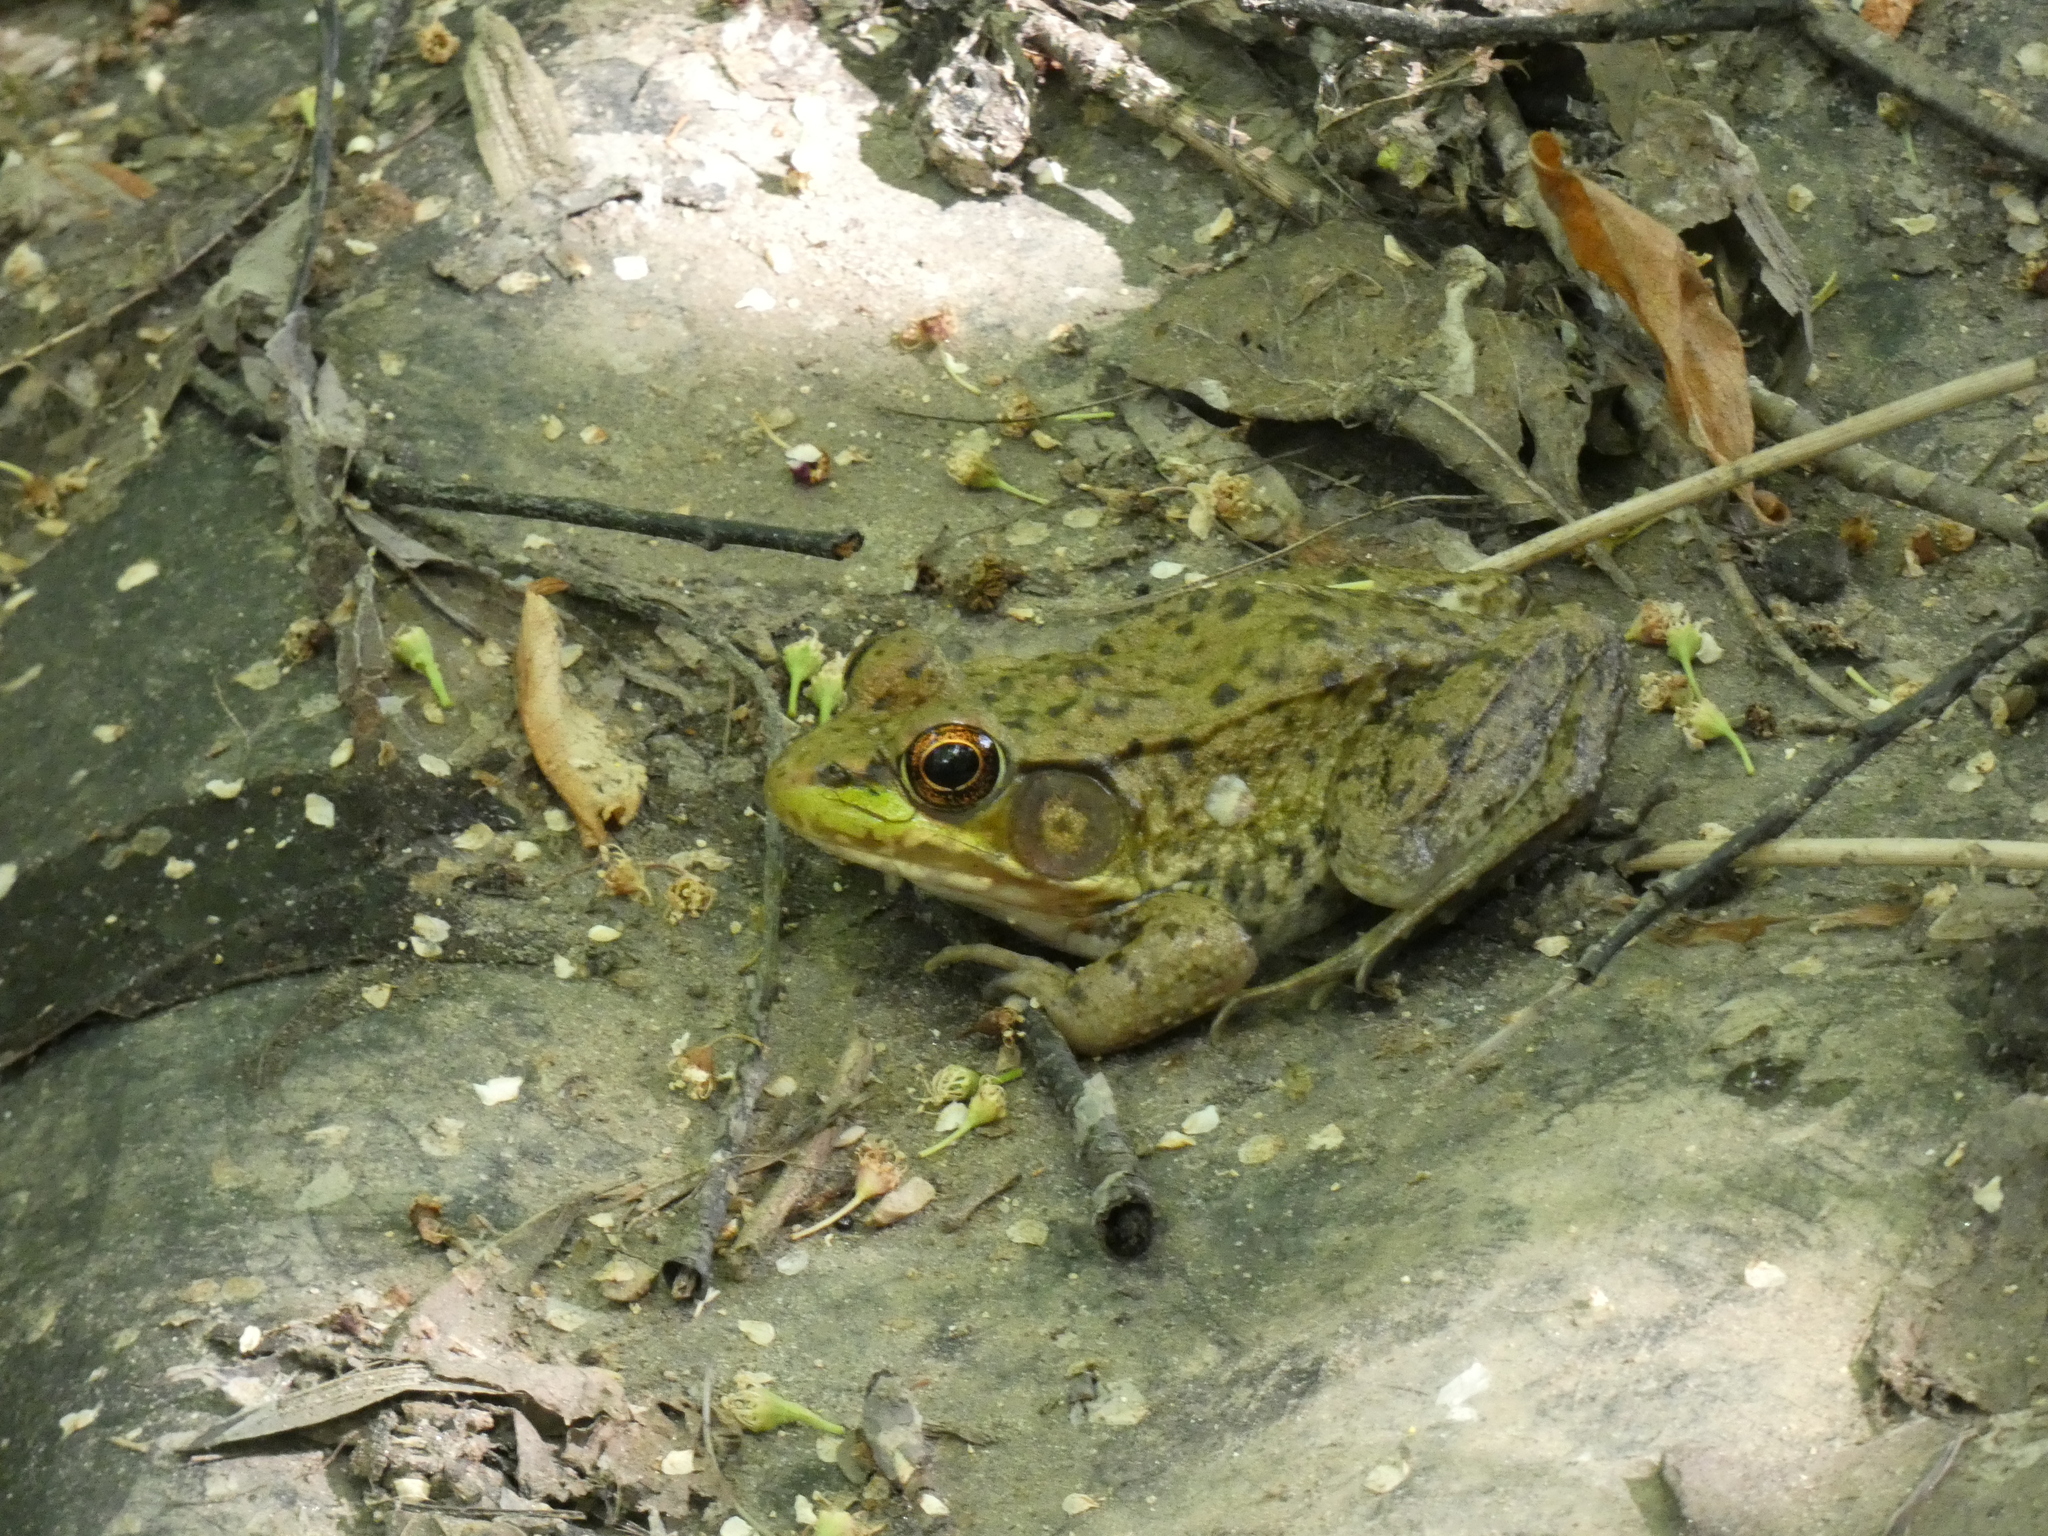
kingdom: Animalia
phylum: Chordata
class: Amphibia
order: Anura
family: Ranidae
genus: Lithobates
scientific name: Lithobates clamitans
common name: Green frog
